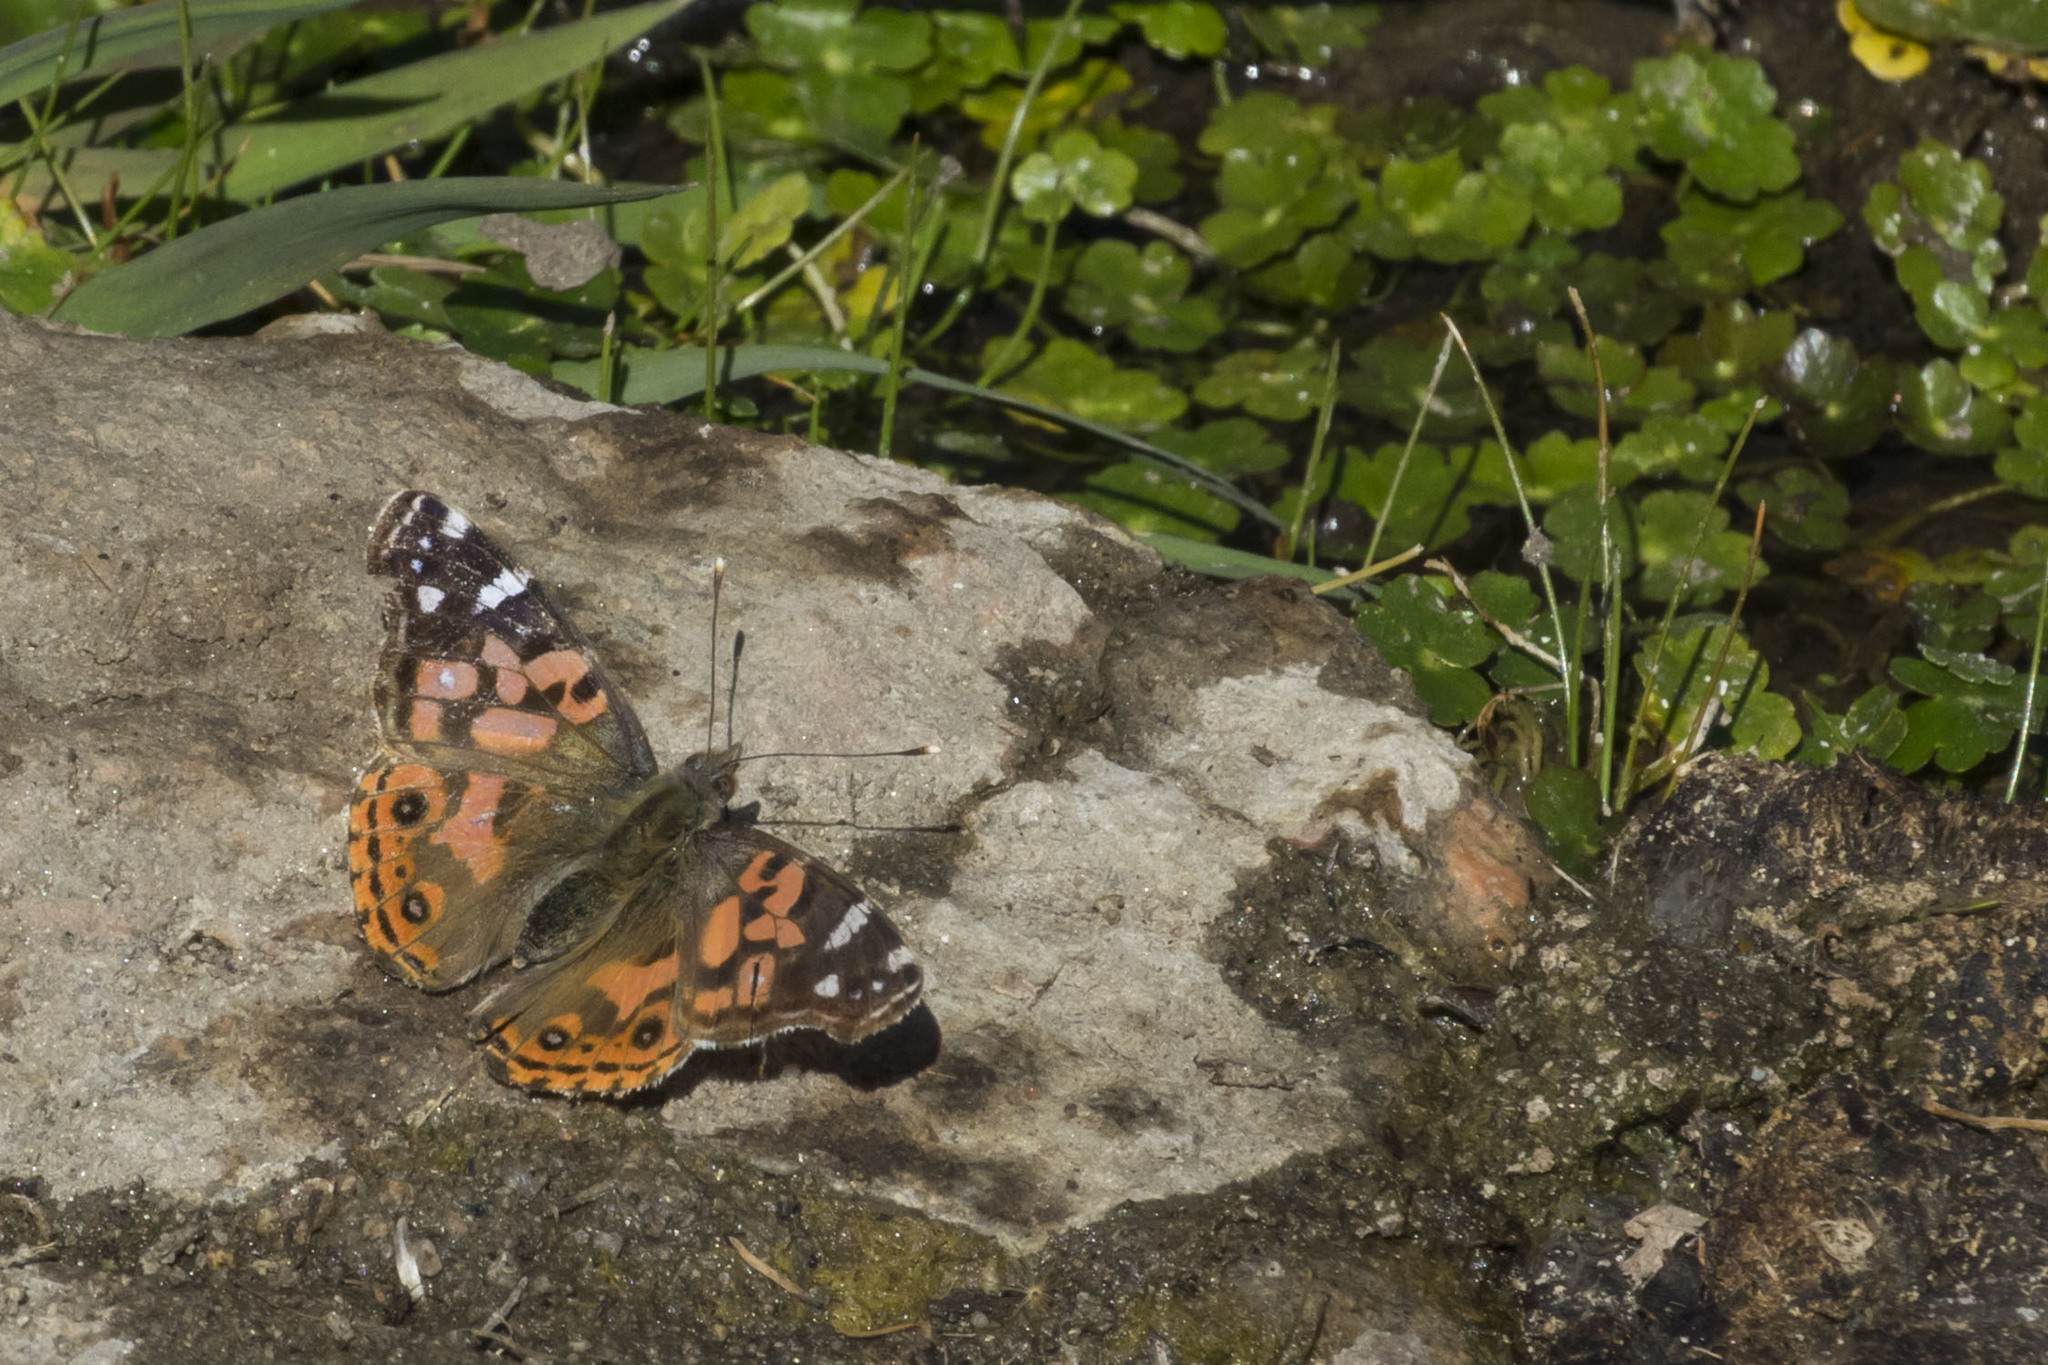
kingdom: Animalia
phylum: Arthropoda
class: Insecta
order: Lepidoptera
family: Nymphalidae
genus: Vanessa
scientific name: Vanessa braziliensis
